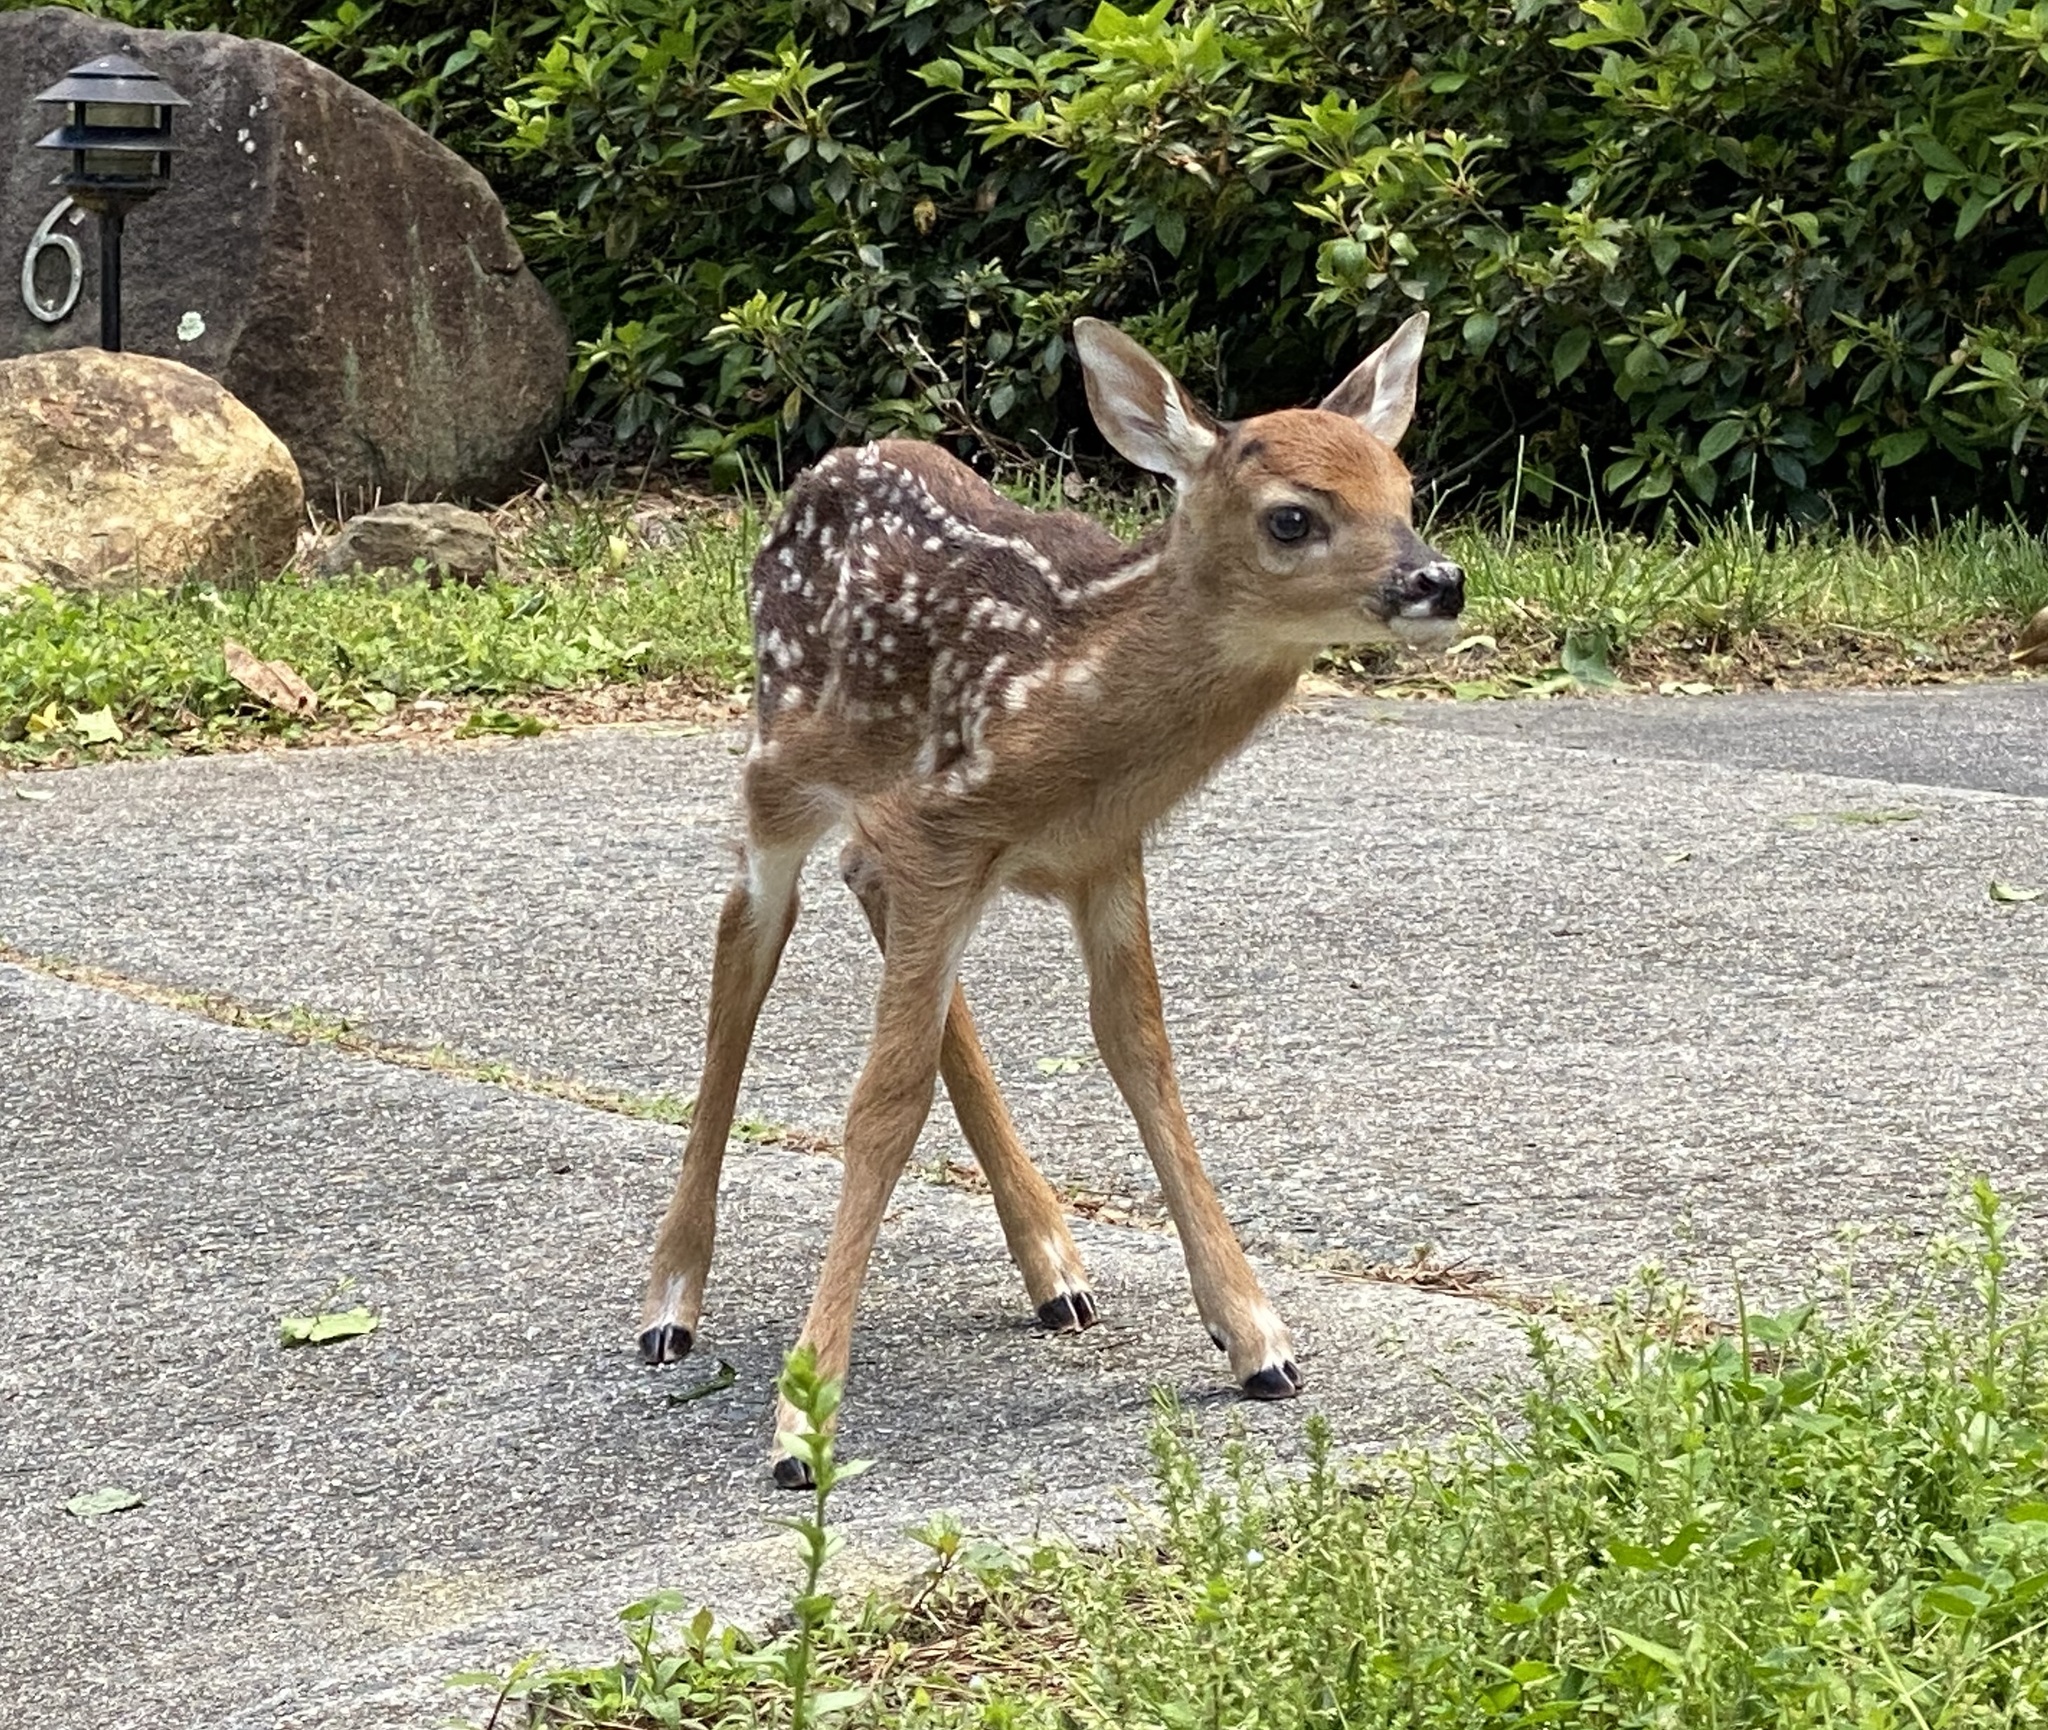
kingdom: Animalia
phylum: Chordata
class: Mammalia
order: Artiodactyla
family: Cervidae
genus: Odocoileus
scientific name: Odocoileus virginianus
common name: White-tailed deer
